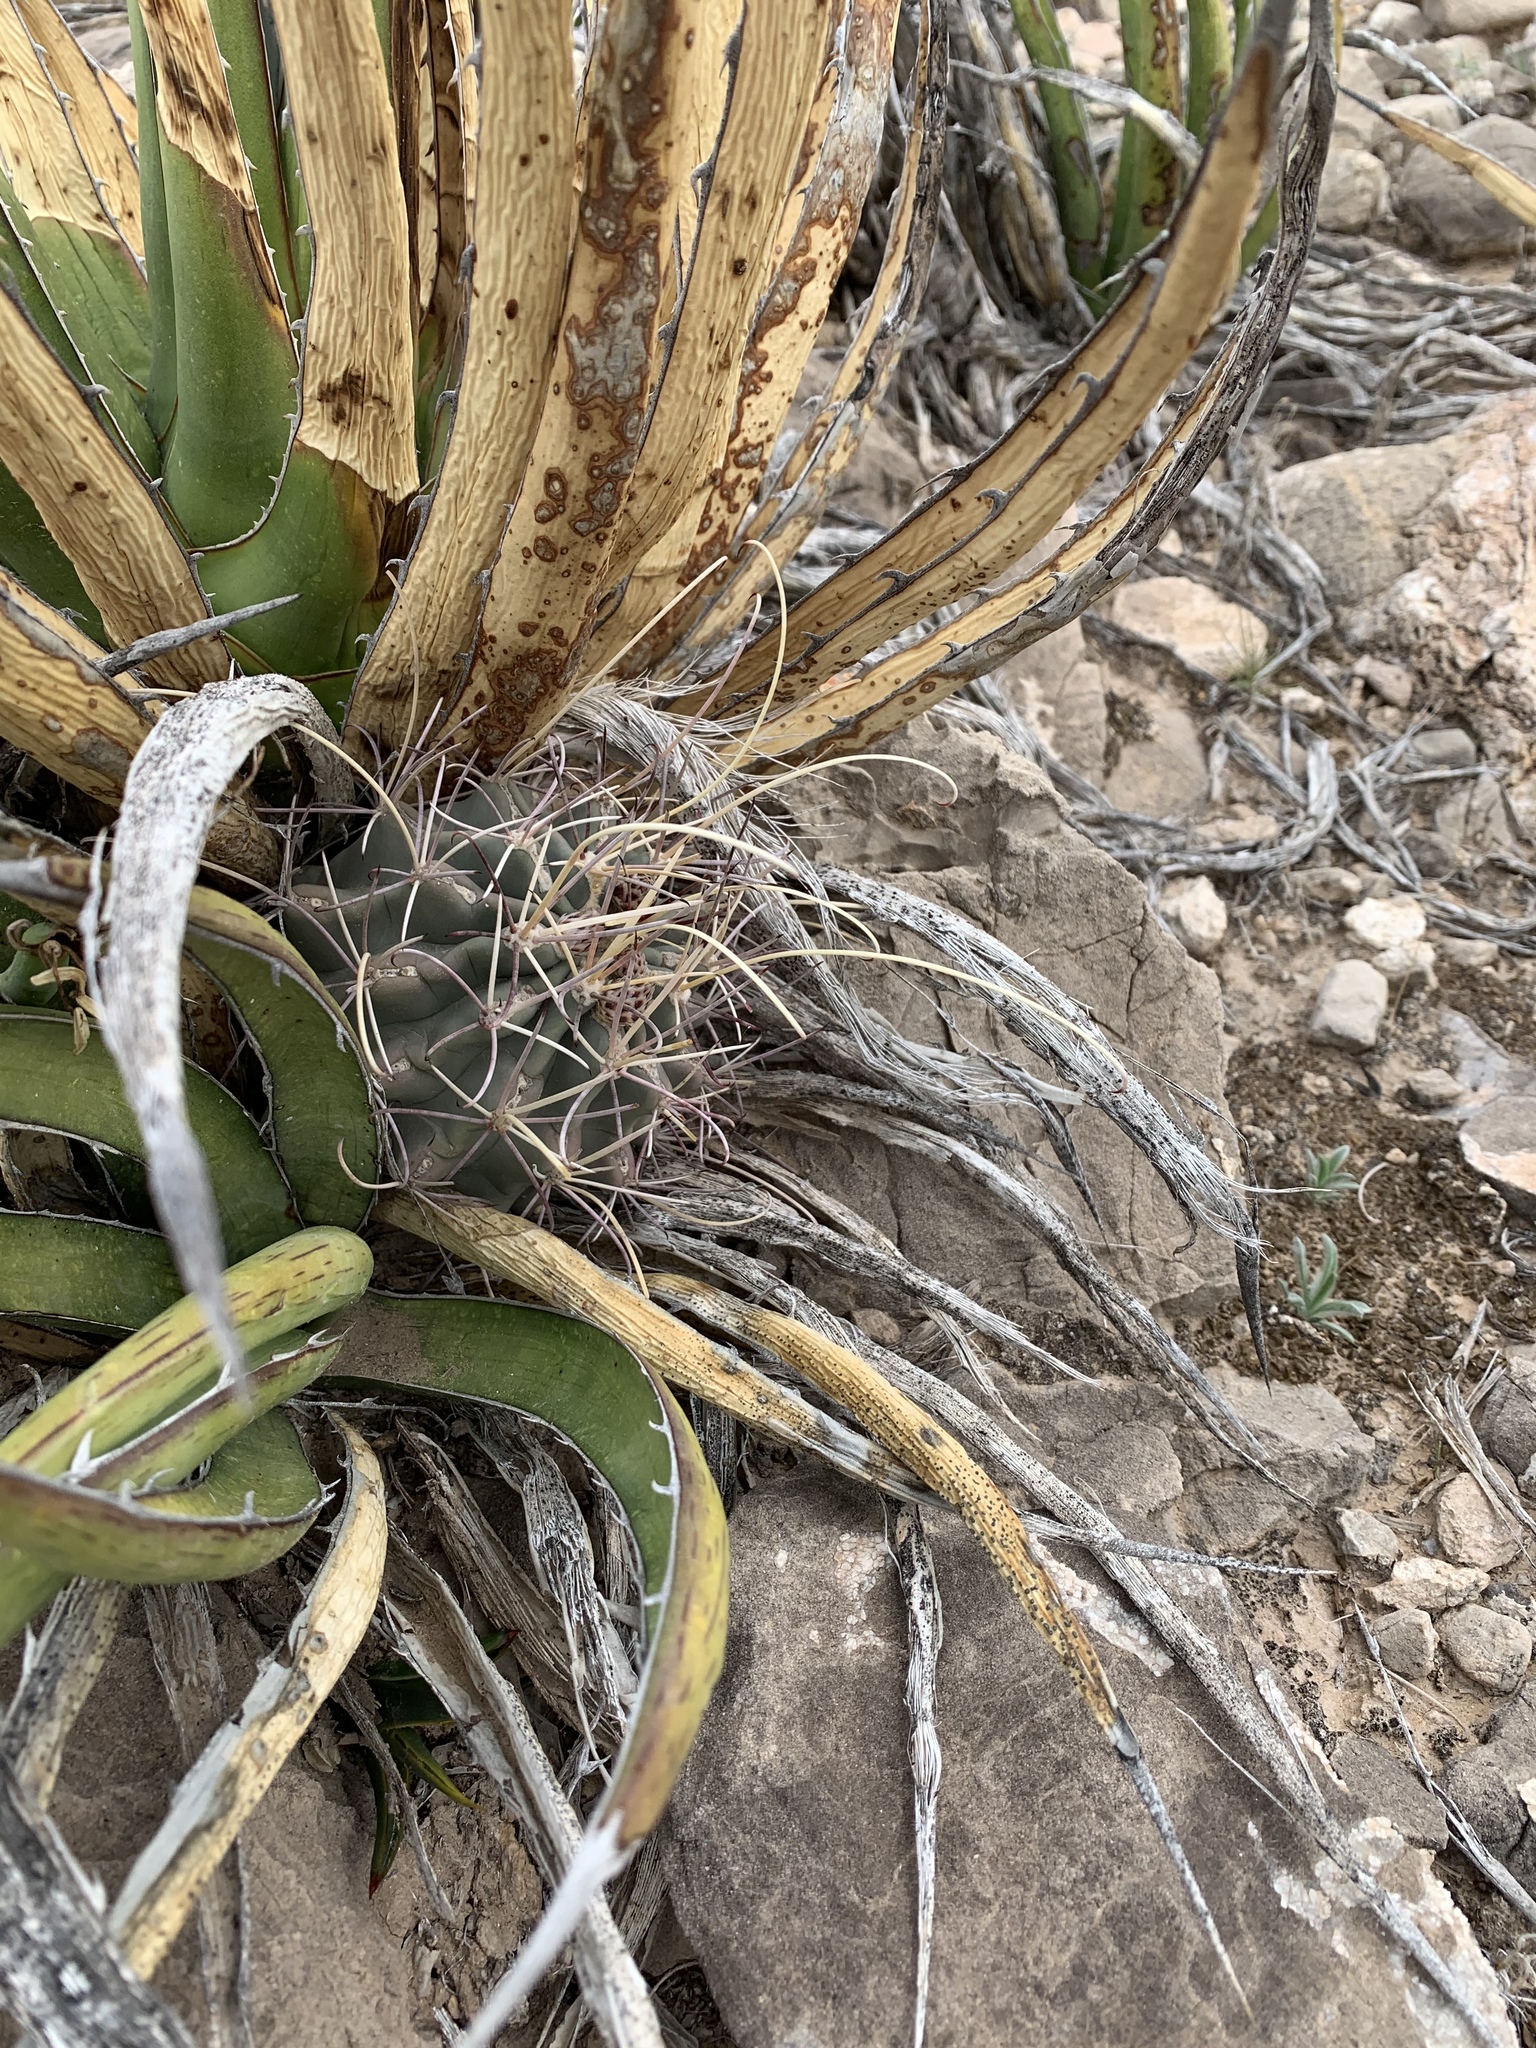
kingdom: Plantae
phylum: Tracheophyta
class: Magnoliopsida
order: Caryophyllales
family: Cactaceae
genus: Ferocactus
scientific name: Ferocactus uncinatus
